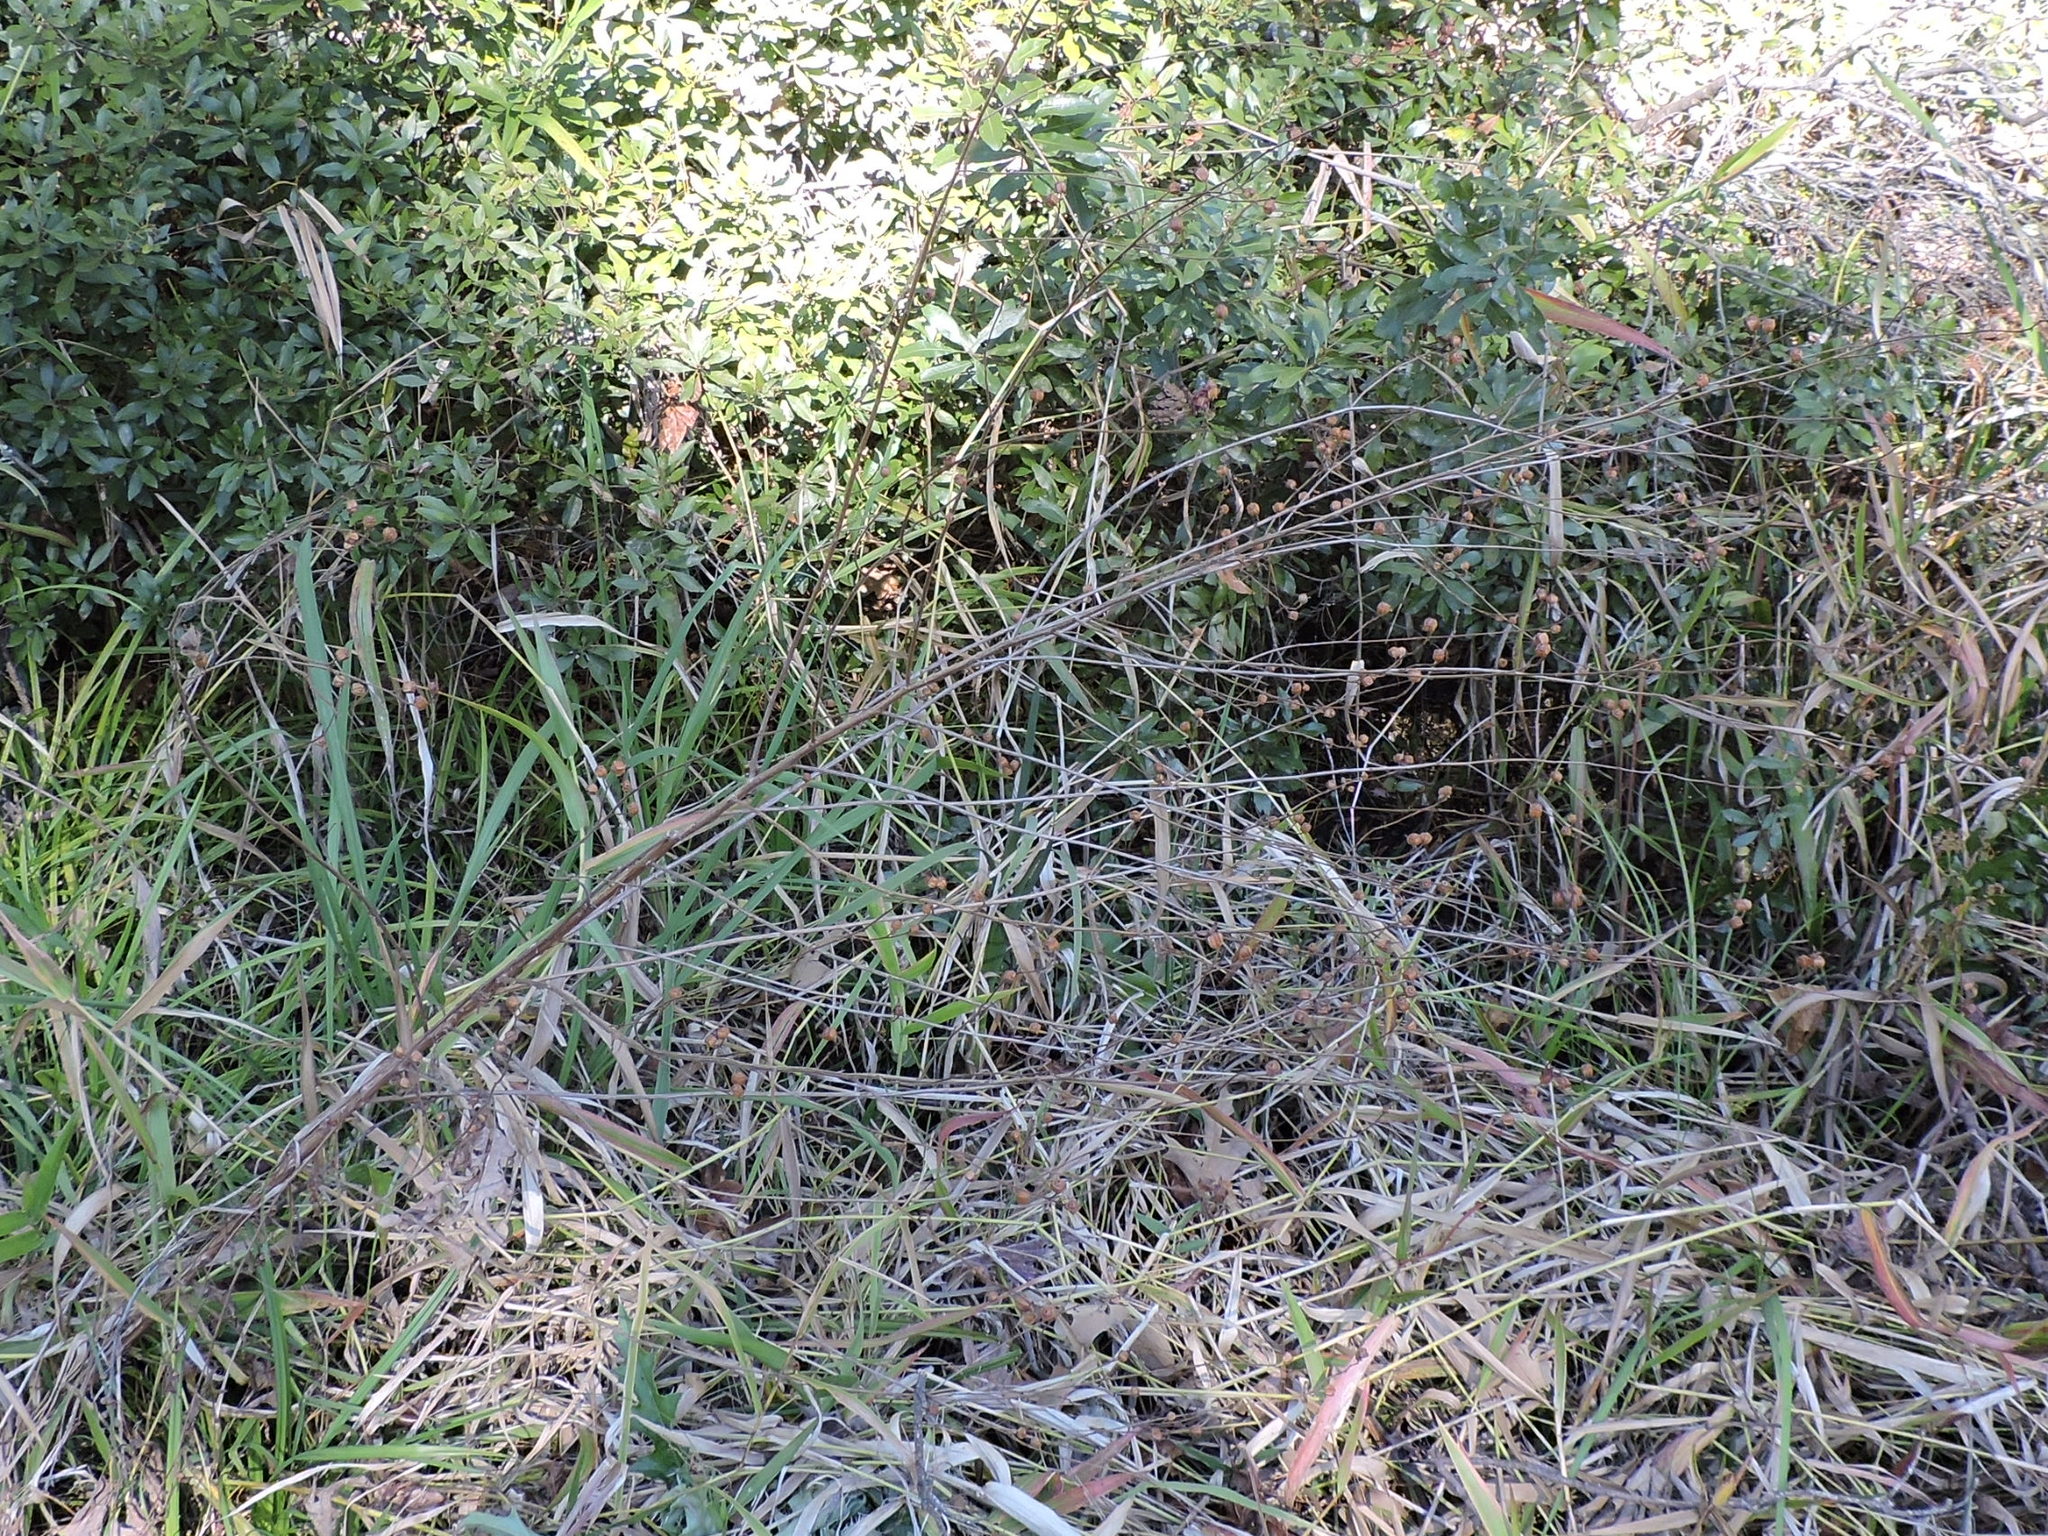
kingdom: Plantae
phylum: Tracheophyta
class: Magnoliopsida
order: Myrtales
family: Onagraceae
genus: Ludwigia
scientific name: Ludwigia alternifolia
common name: Rattlebox
